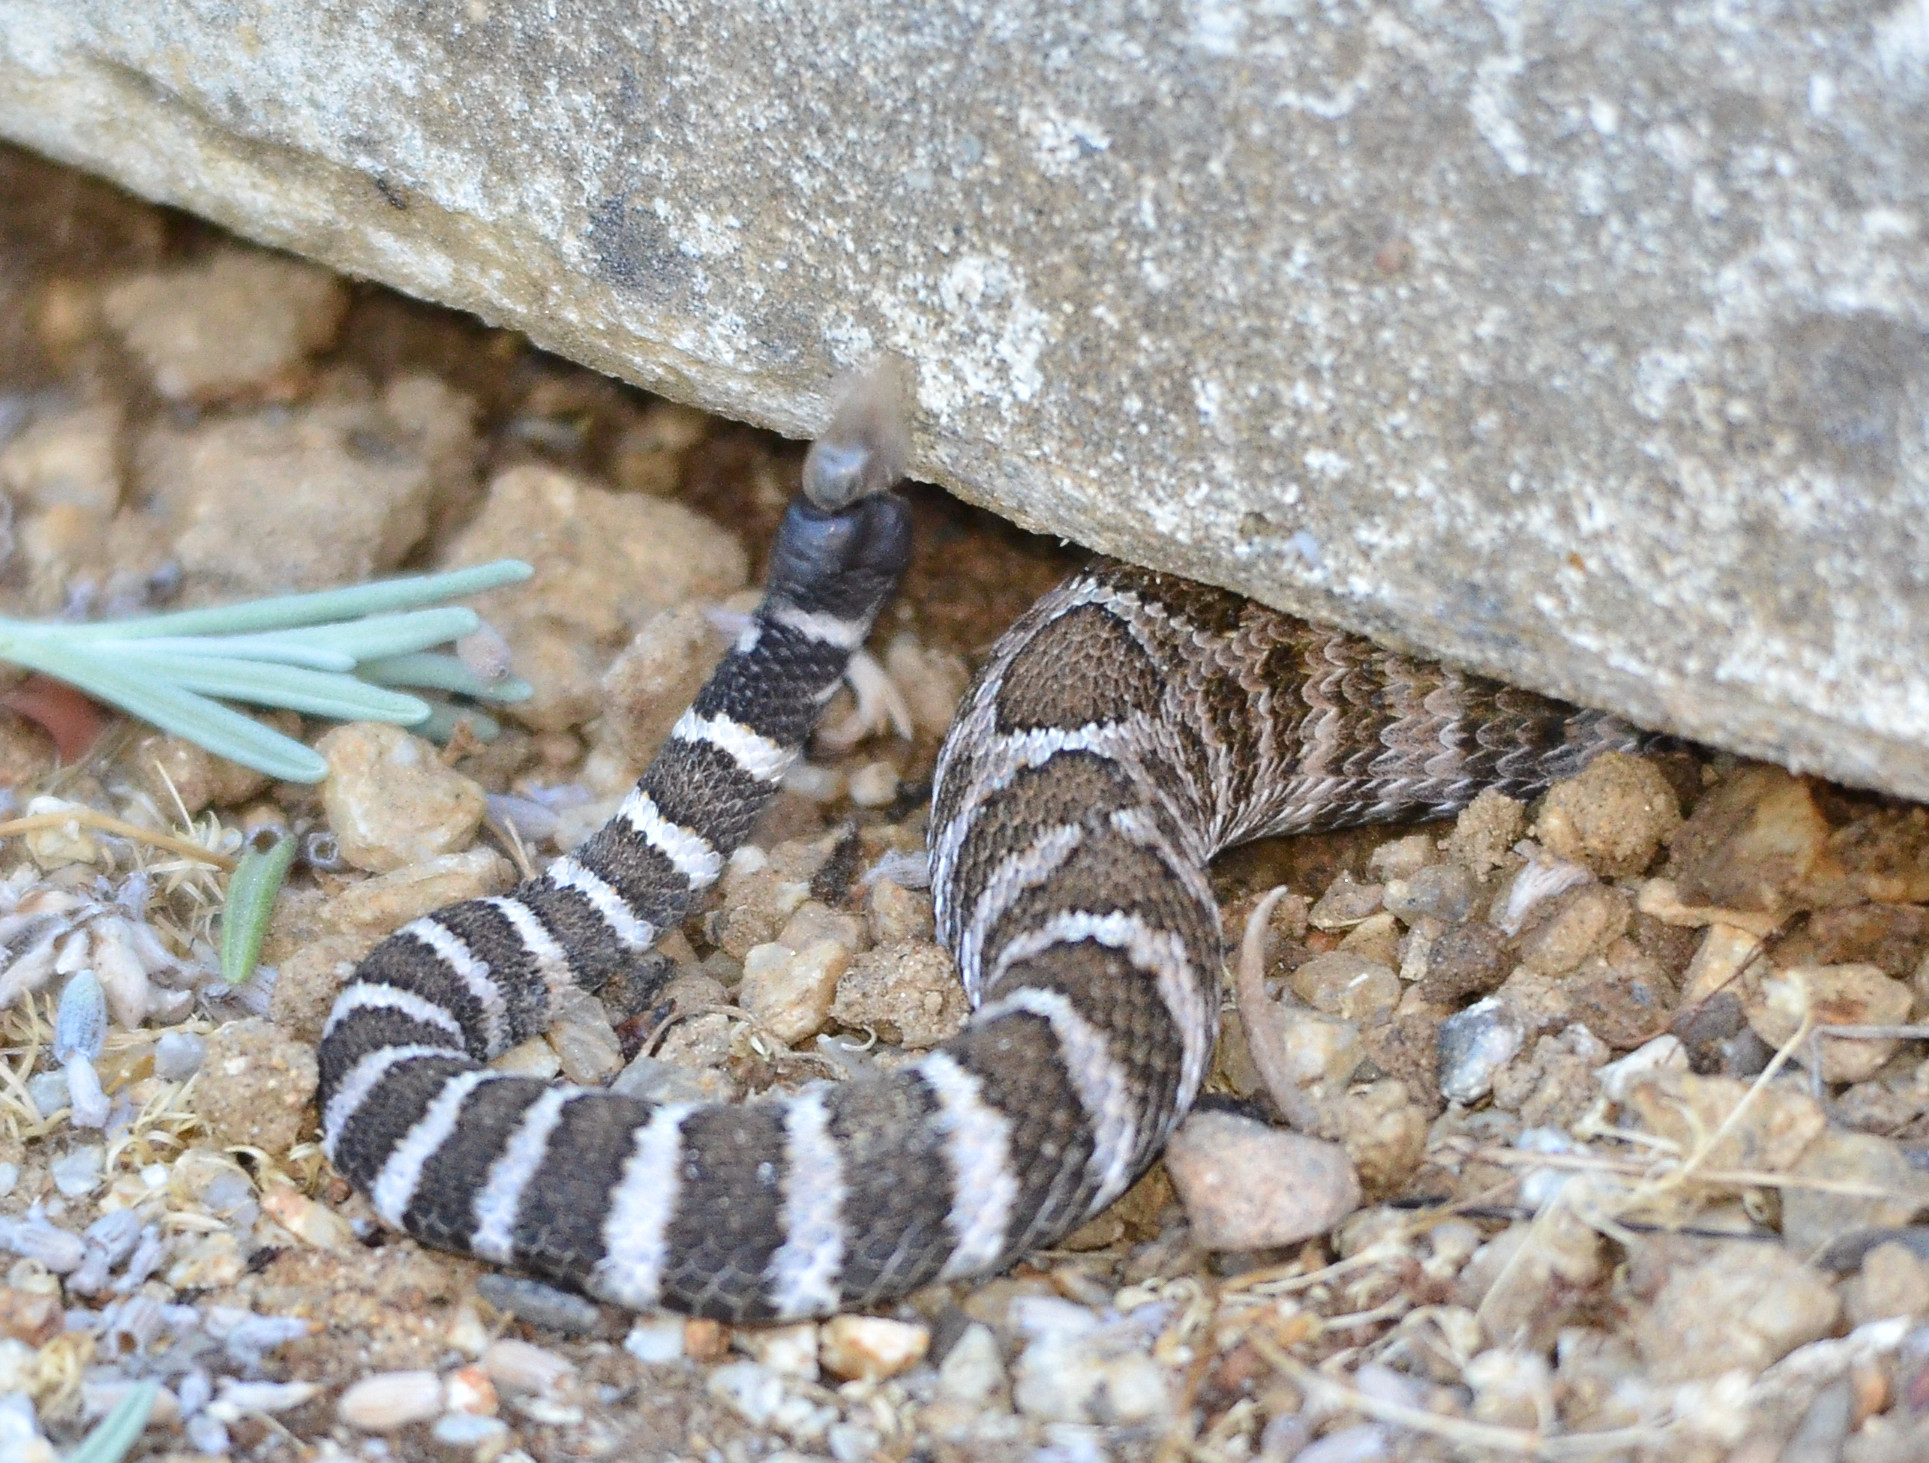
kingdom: Animalia
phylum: Chordata
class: Squamata
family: Viperidae
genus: Crotalus
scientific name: Crotalus oreganus
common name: Abyssus
